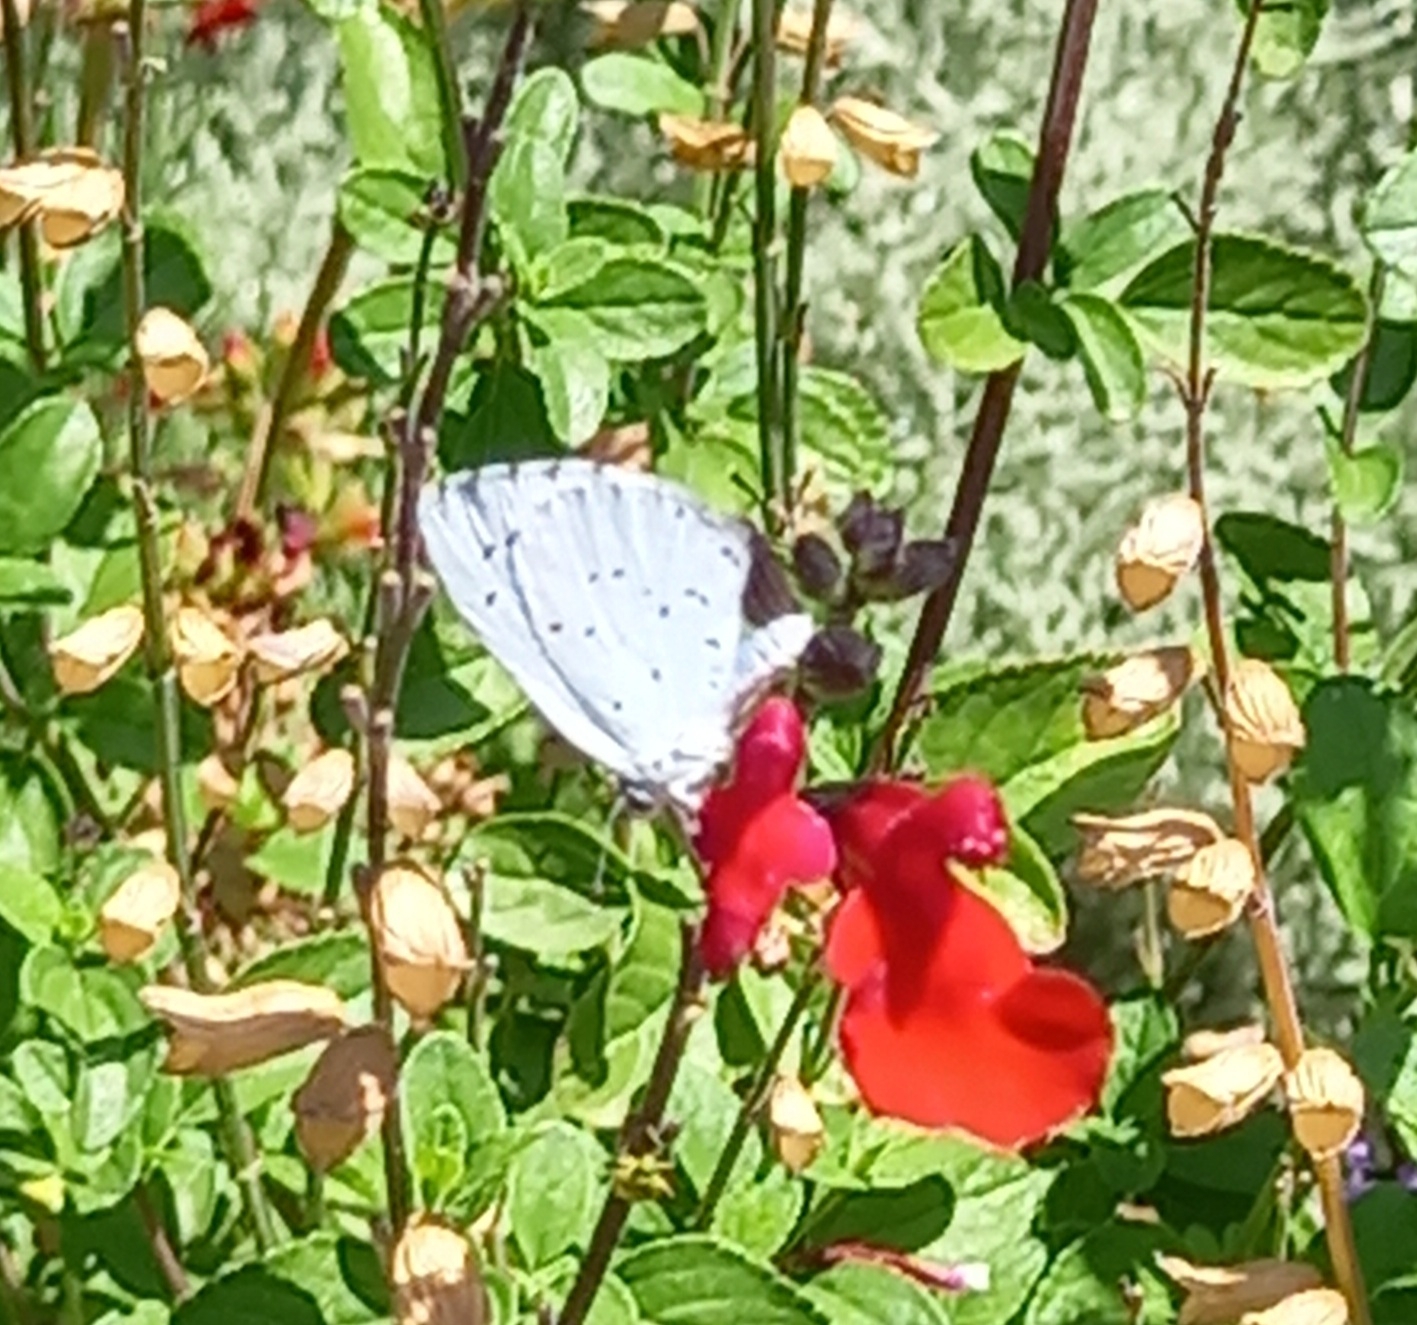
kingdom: Animalia
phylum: Arthropoda
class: Insecta
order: Lepidoptera
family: Lycaenidae
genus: Celastrina
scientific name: Celastrina argiolus
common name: Holly blue
